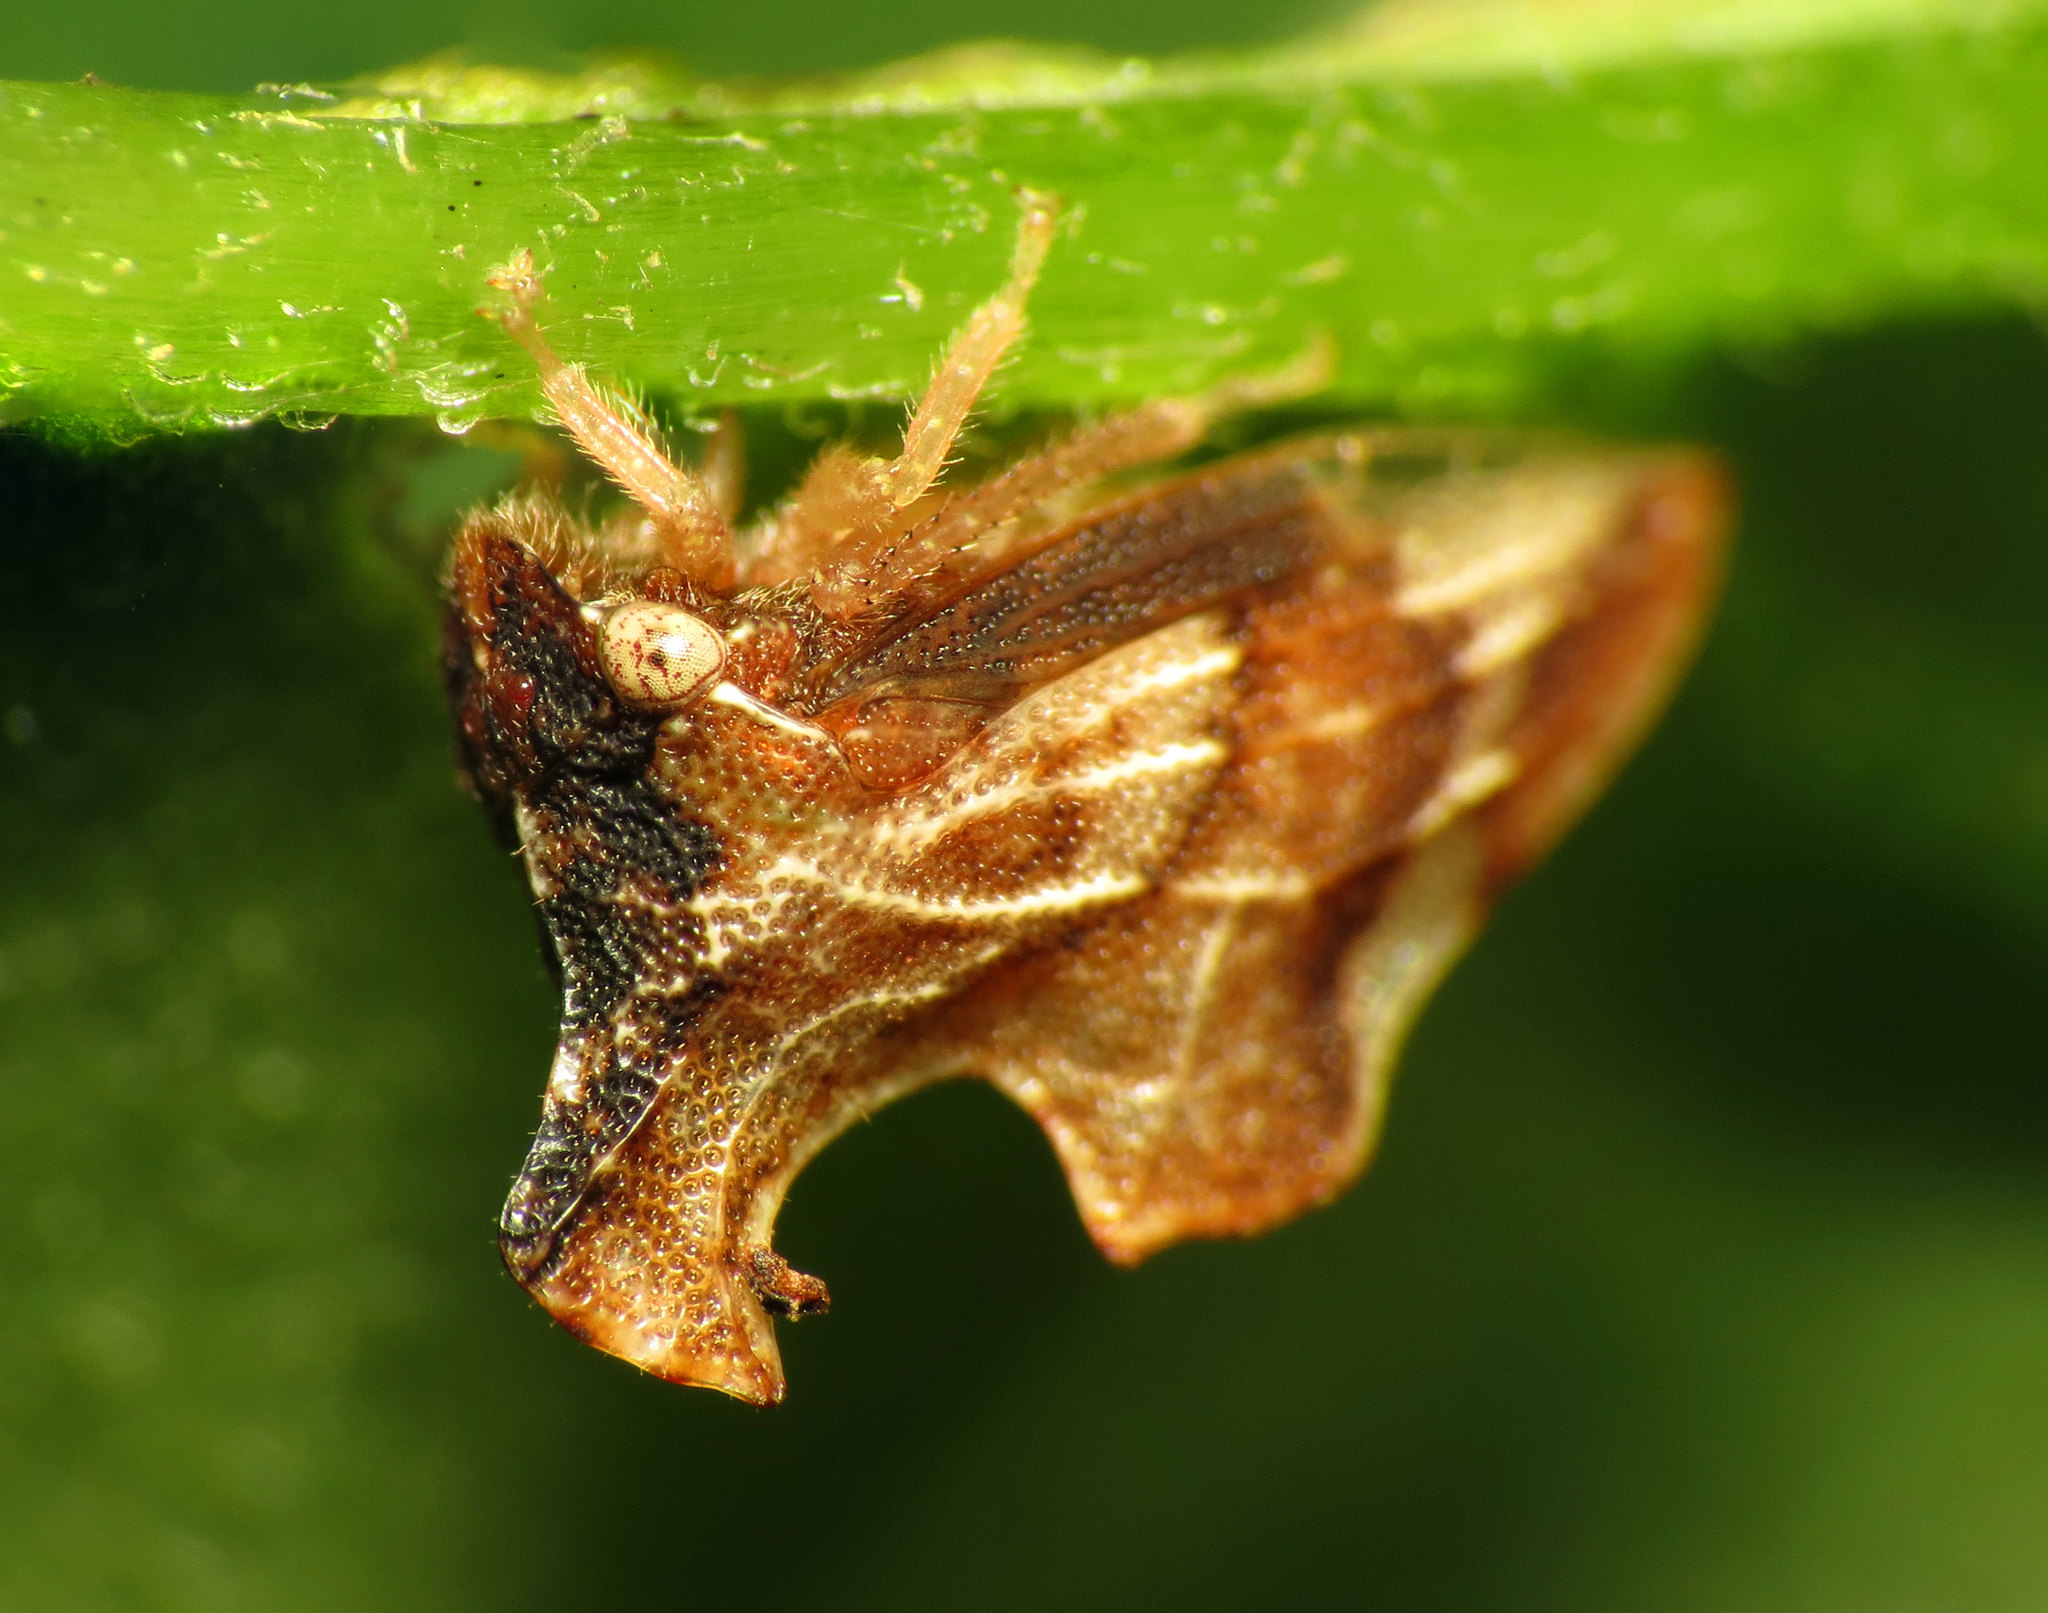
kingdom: Animalia
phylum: Arthropoda
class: Insecta
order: Hemiptera
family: Membracidae
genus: Entylia
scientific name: Entylia carinata
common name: Keeled treehopper
